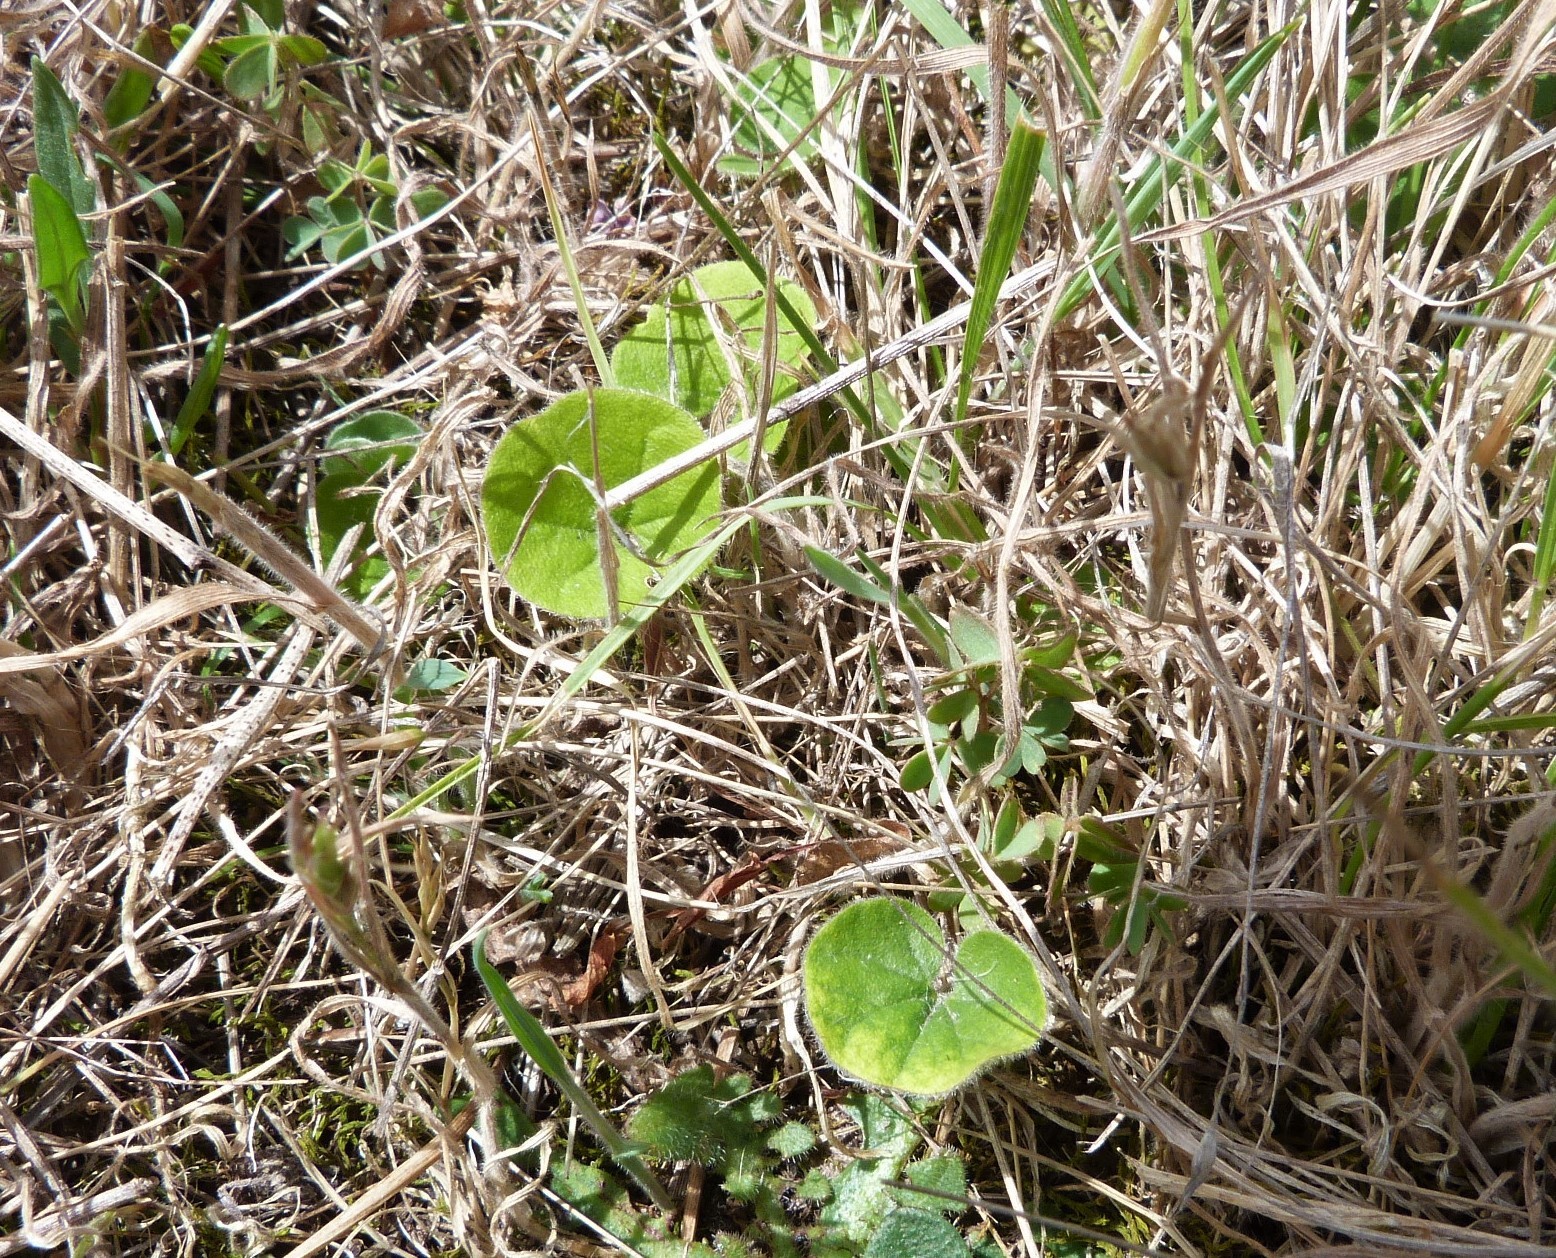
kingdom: Plantae
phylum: Tracheophyta
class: Magnoliopsida
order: Solanales
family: Convolvulaceae
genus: Dichondra
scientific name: Dichondra repens
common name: Kidneyweed
